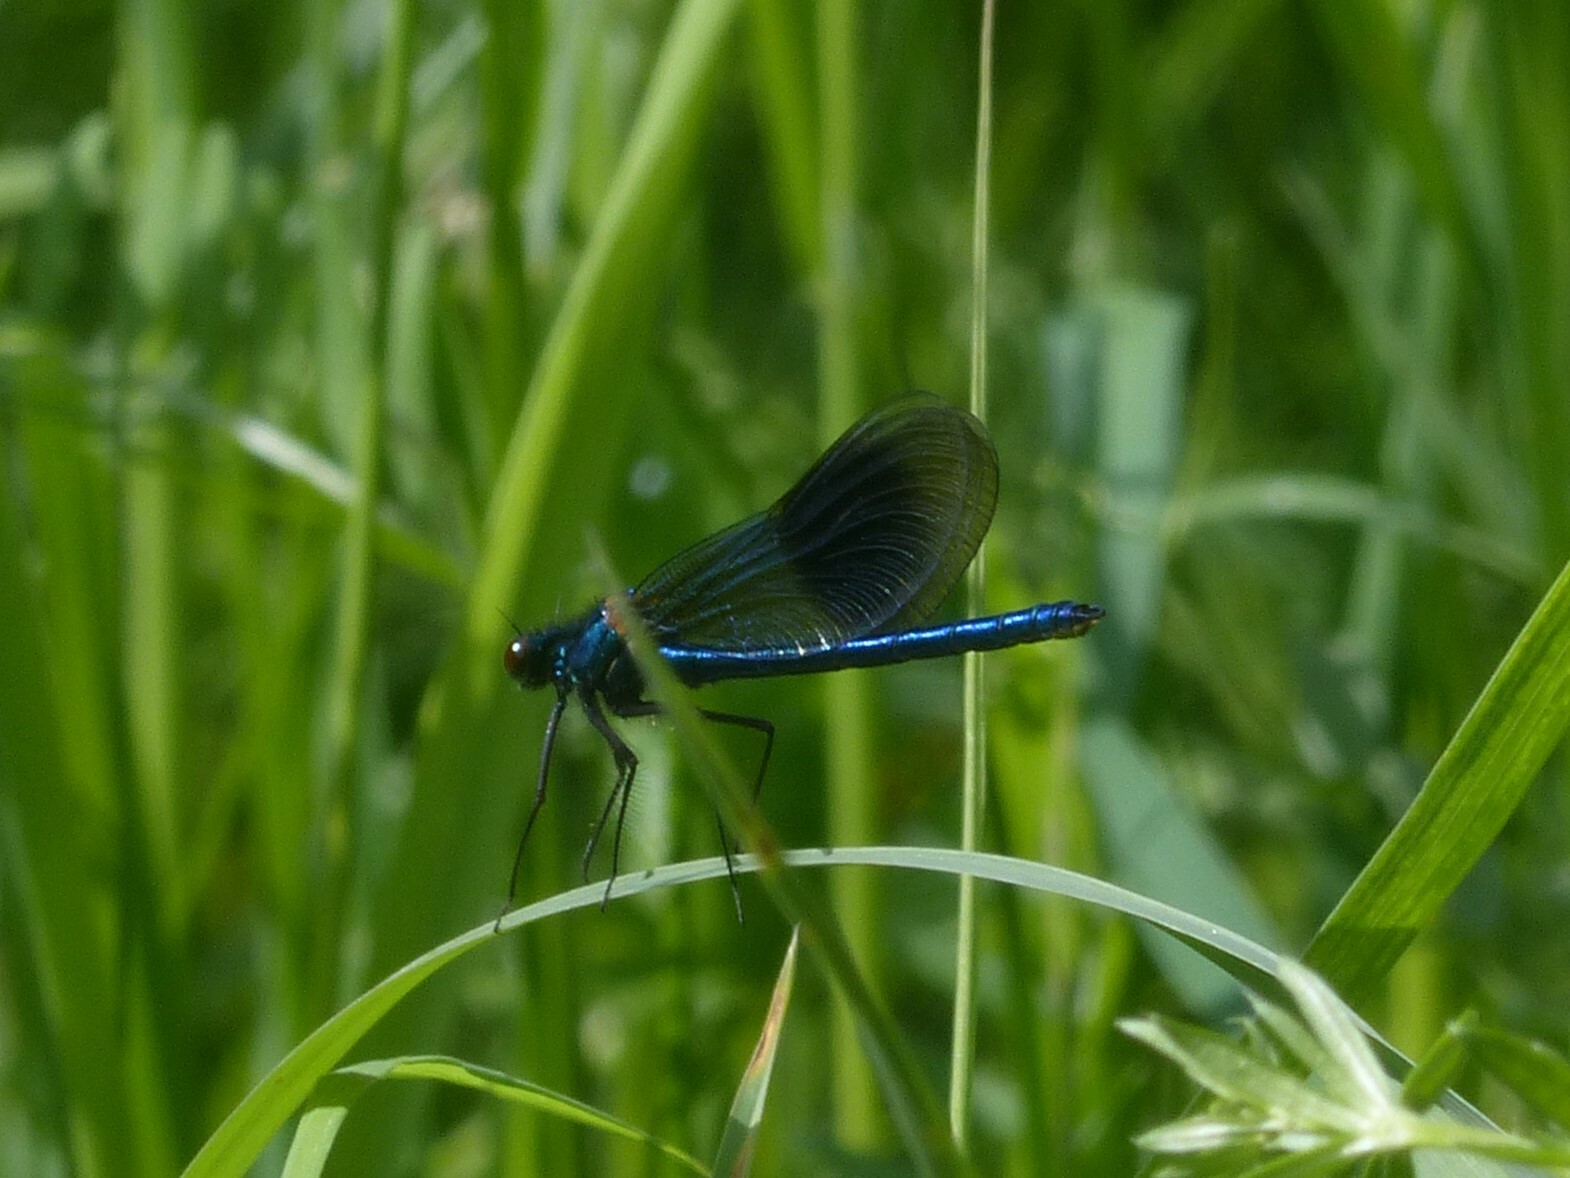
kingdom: Animalia
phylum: Arthropoda
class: Insecta
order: Odonata
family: Calopterygidae
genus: Calopteryx
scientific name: Calopteryx splendens
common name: Banded demoiselle
